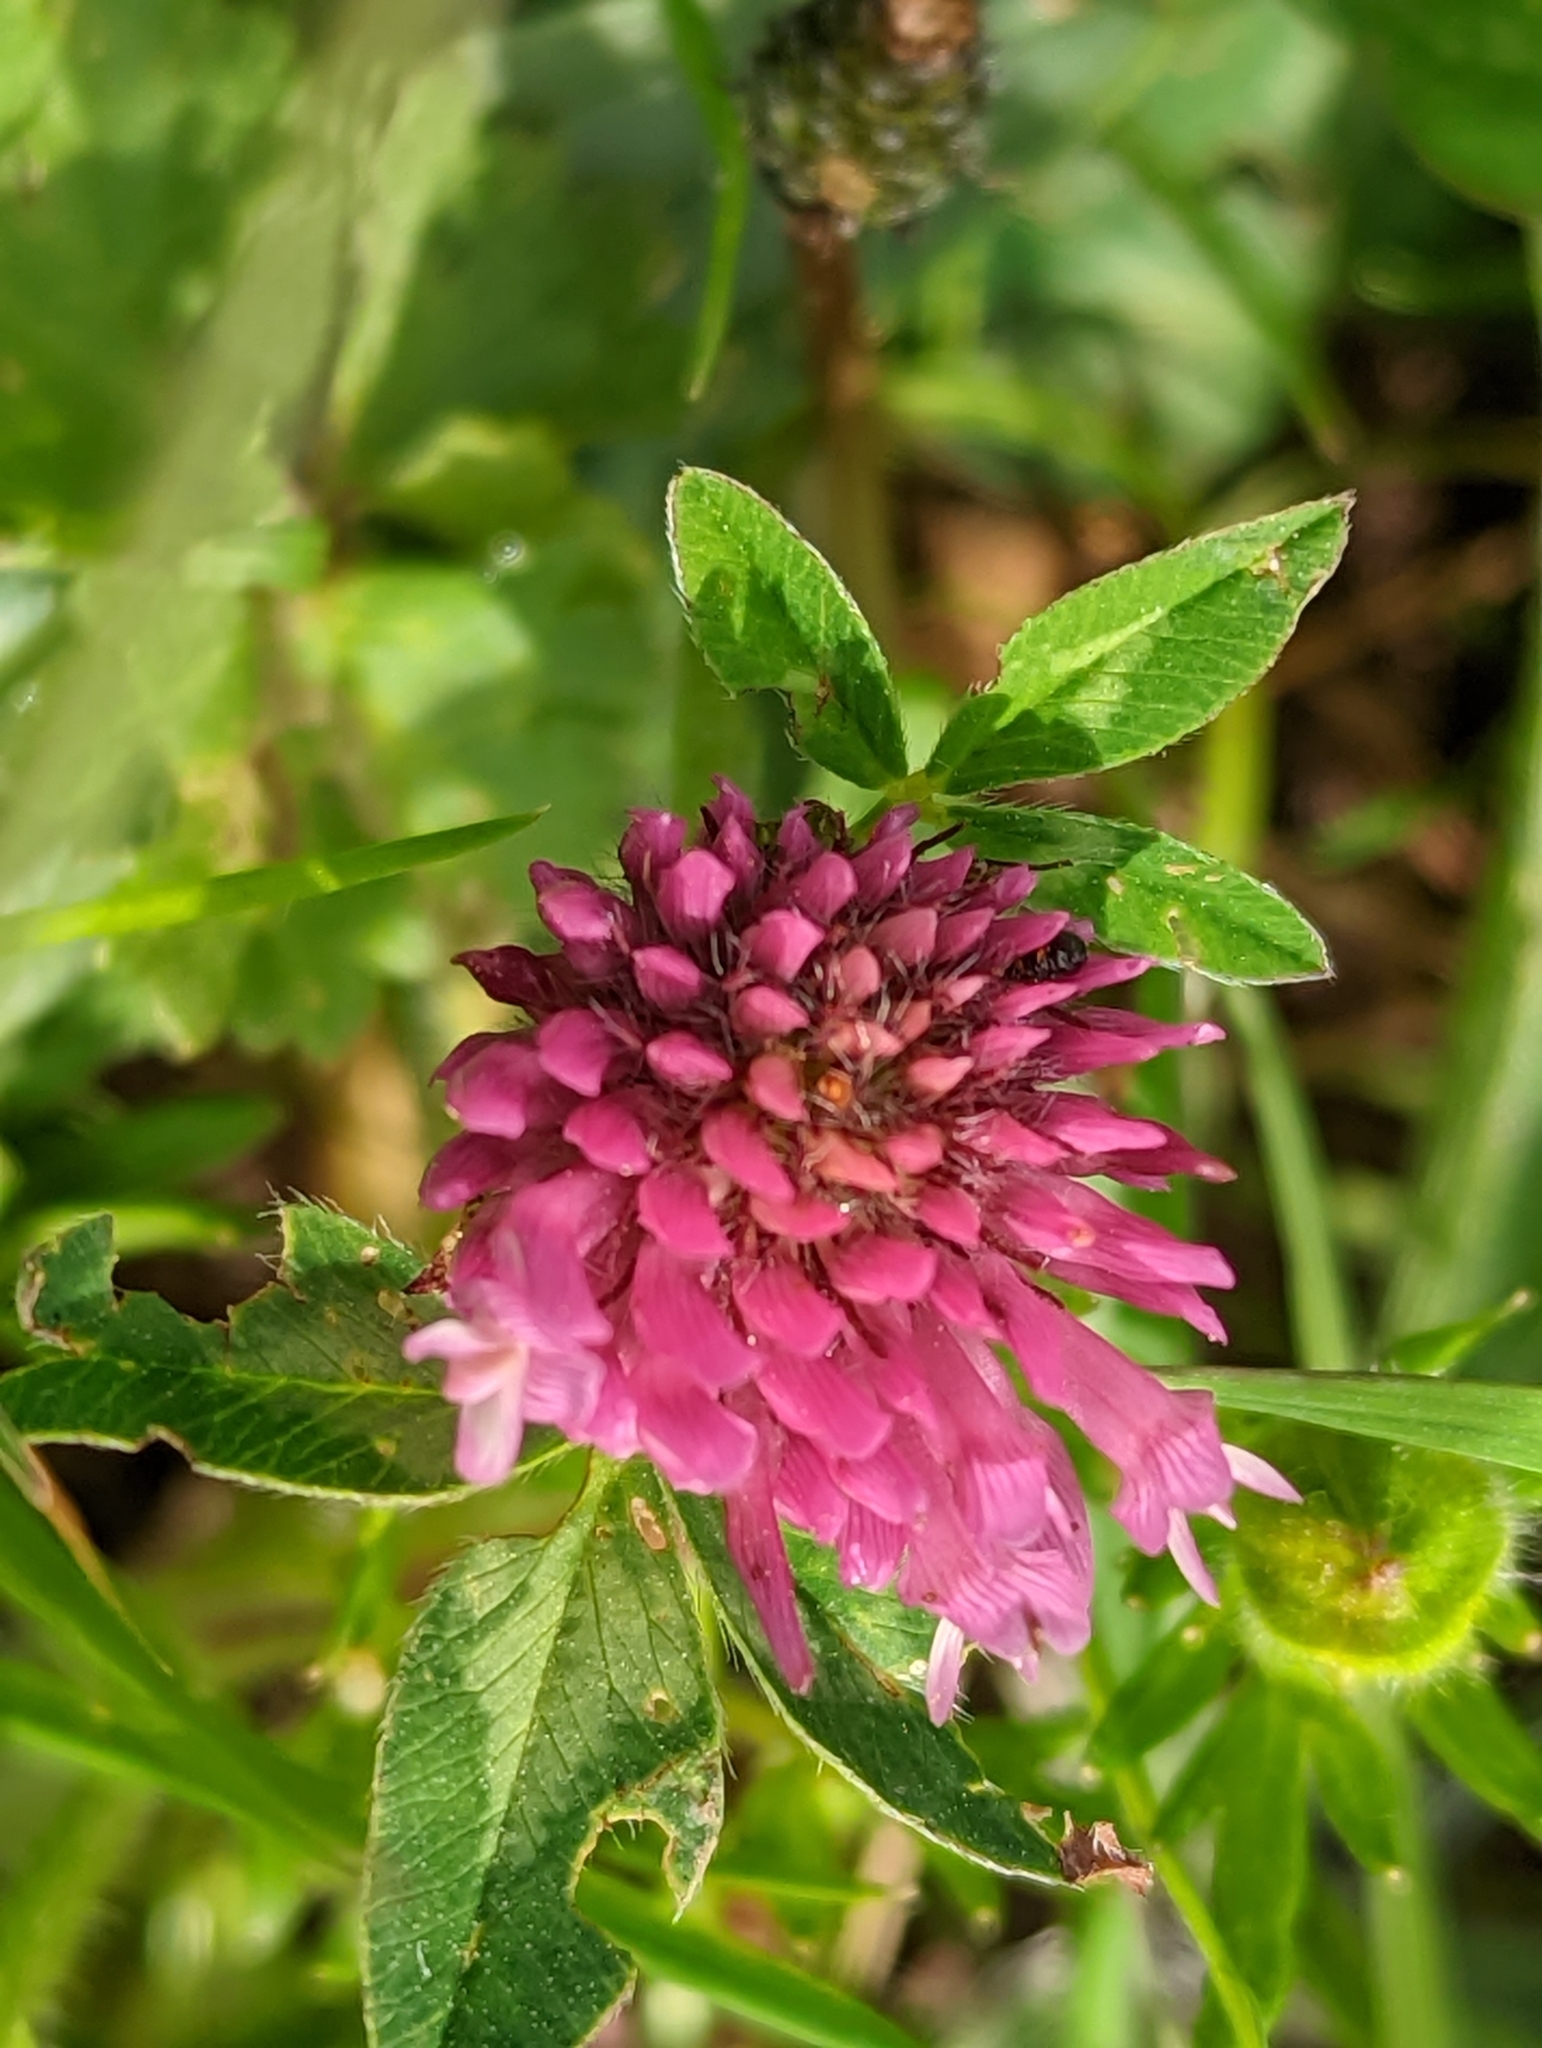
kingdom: Plantae
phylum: Tracheophyta
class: Magnoliopsida
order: Fabales
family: Fabaceae
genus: Trifolium
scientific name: Trifolium pratense
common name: Red clover
